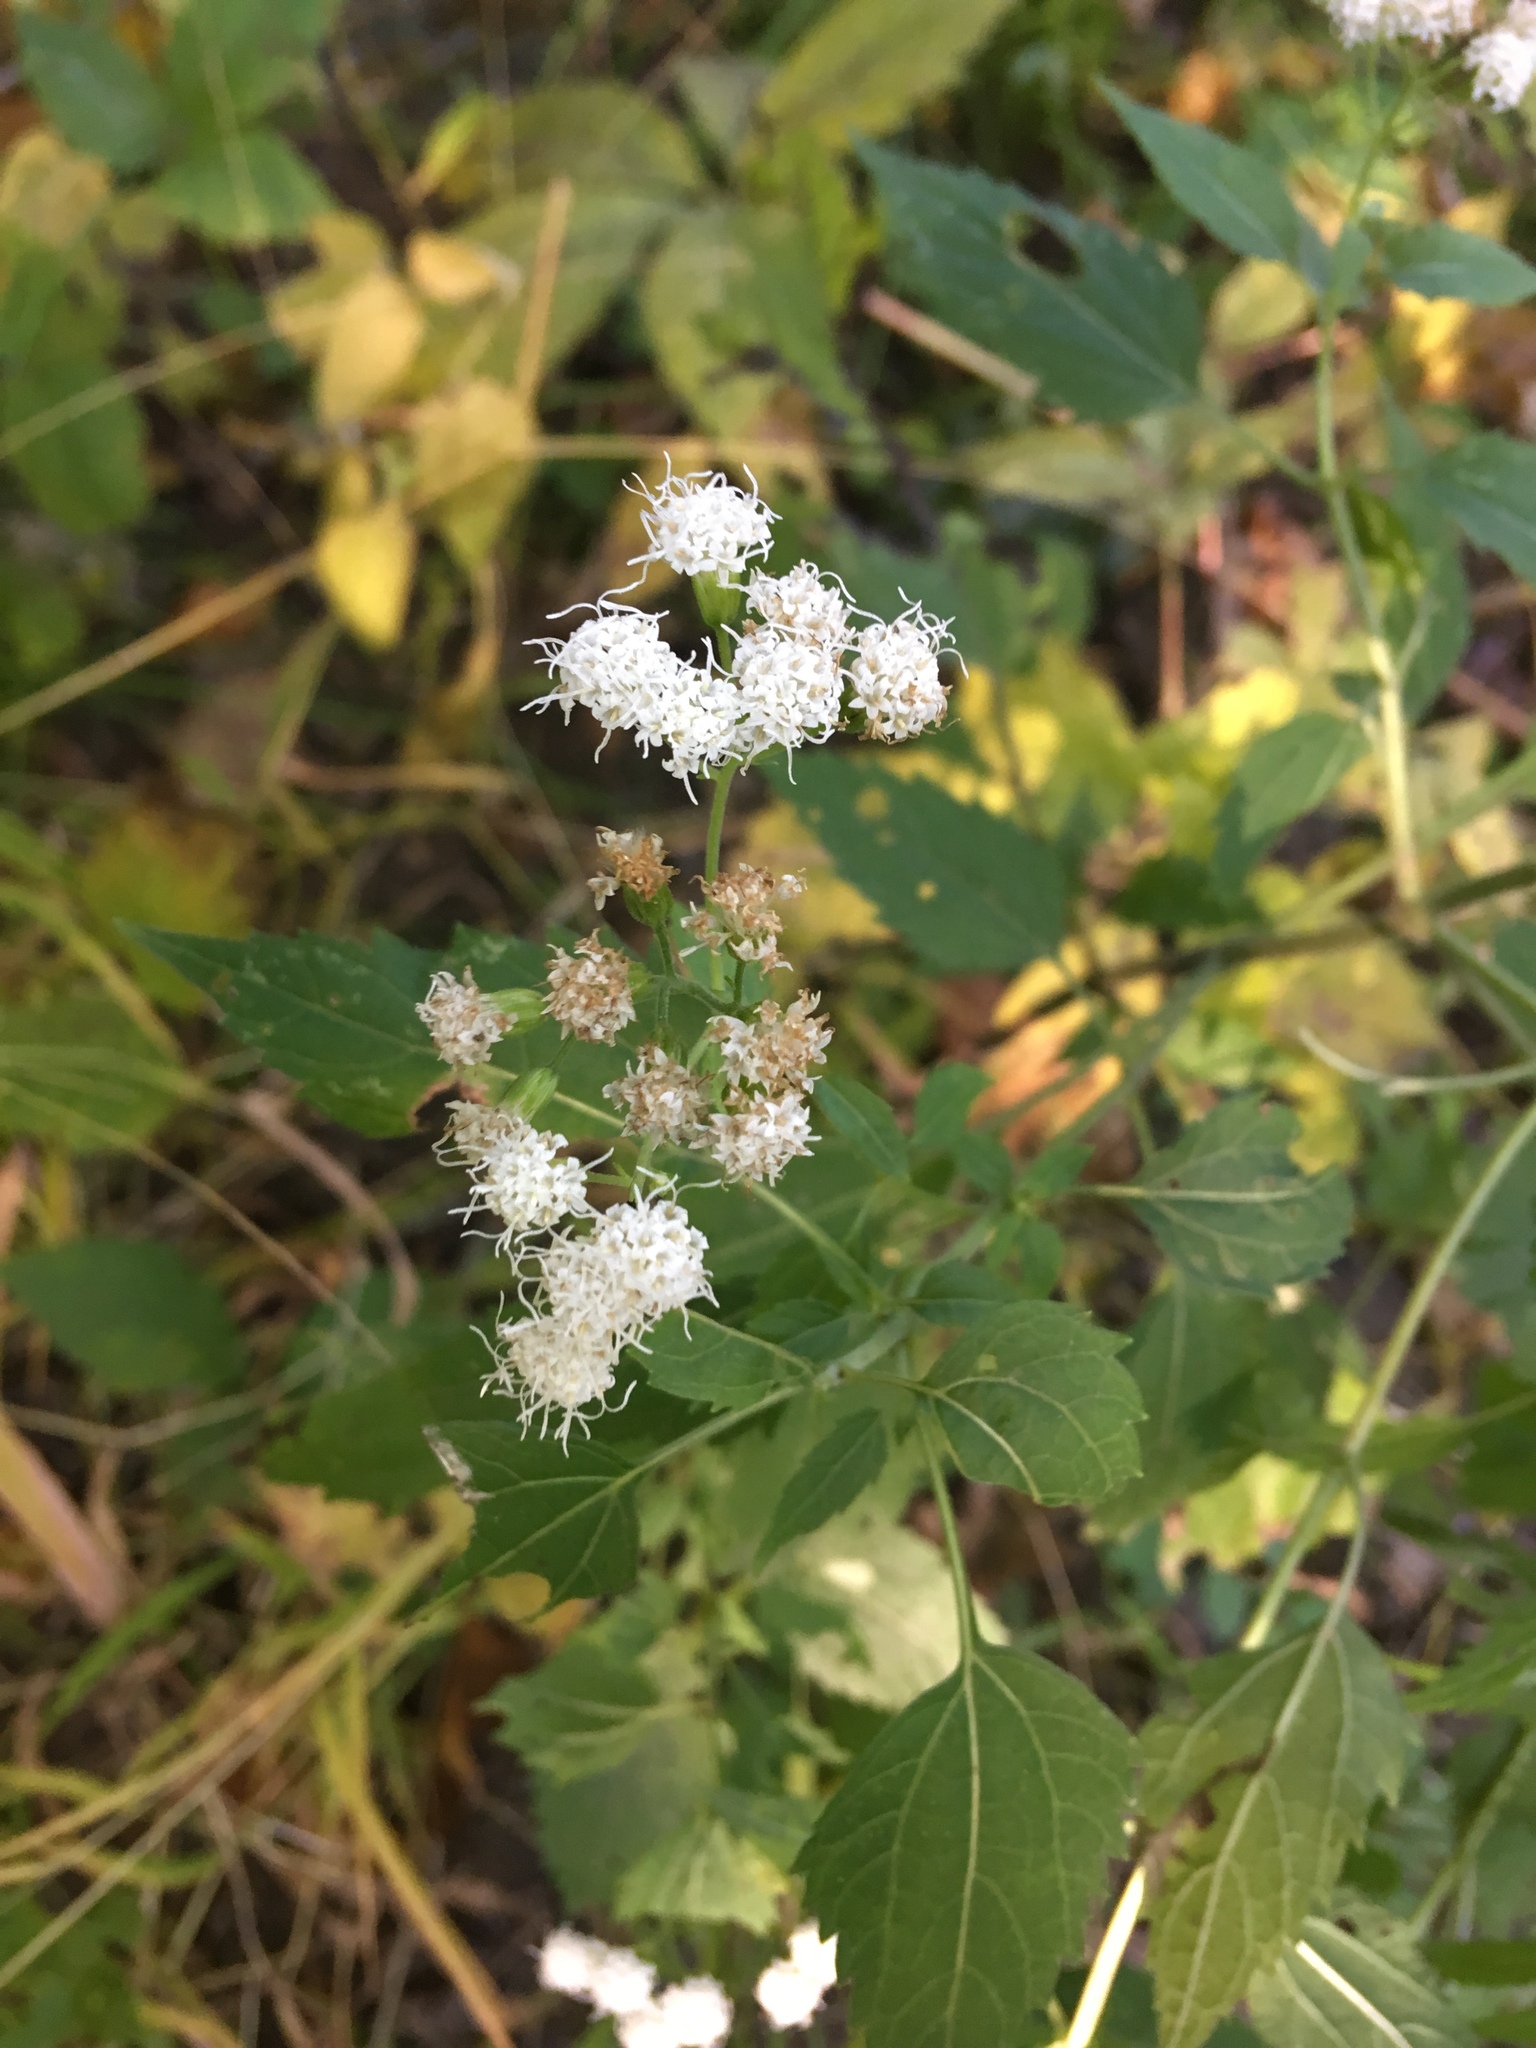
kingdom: Plantae
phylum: Tracheophyta
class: Magnoliopsida
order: Asterales
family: Asteraceae
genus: Ageratina
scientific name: Ageratina altissima
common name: White snakeroot
